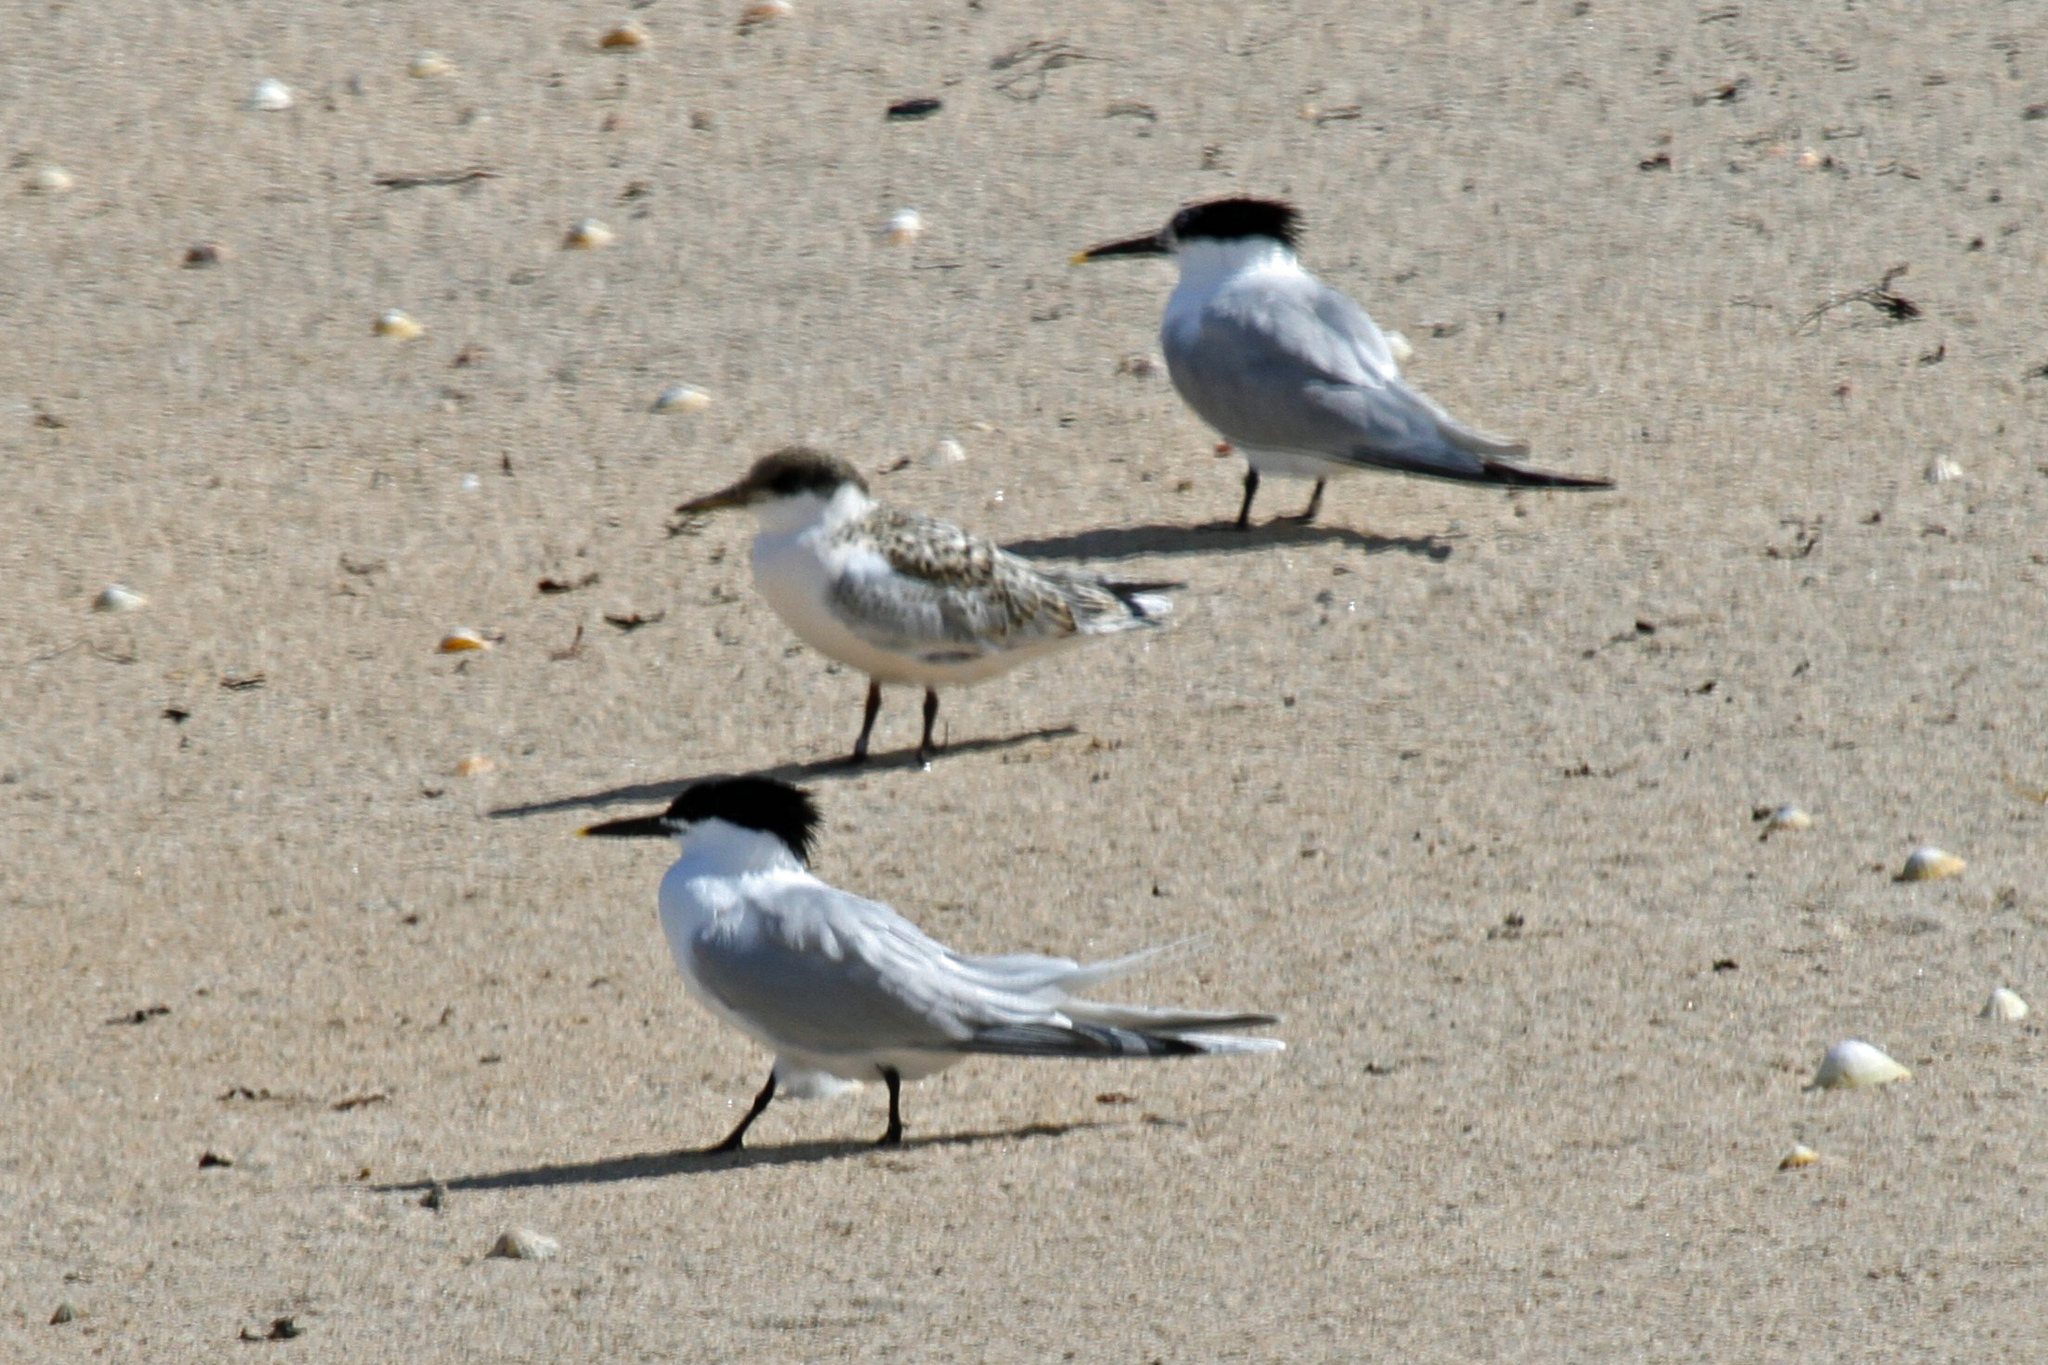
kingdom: Animalia
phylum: Chordata
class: Aves
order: Charadriiformes
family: Laridae
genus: Thalasseus
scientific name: Thalasseus sandvicensis
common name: Sandwich tern
